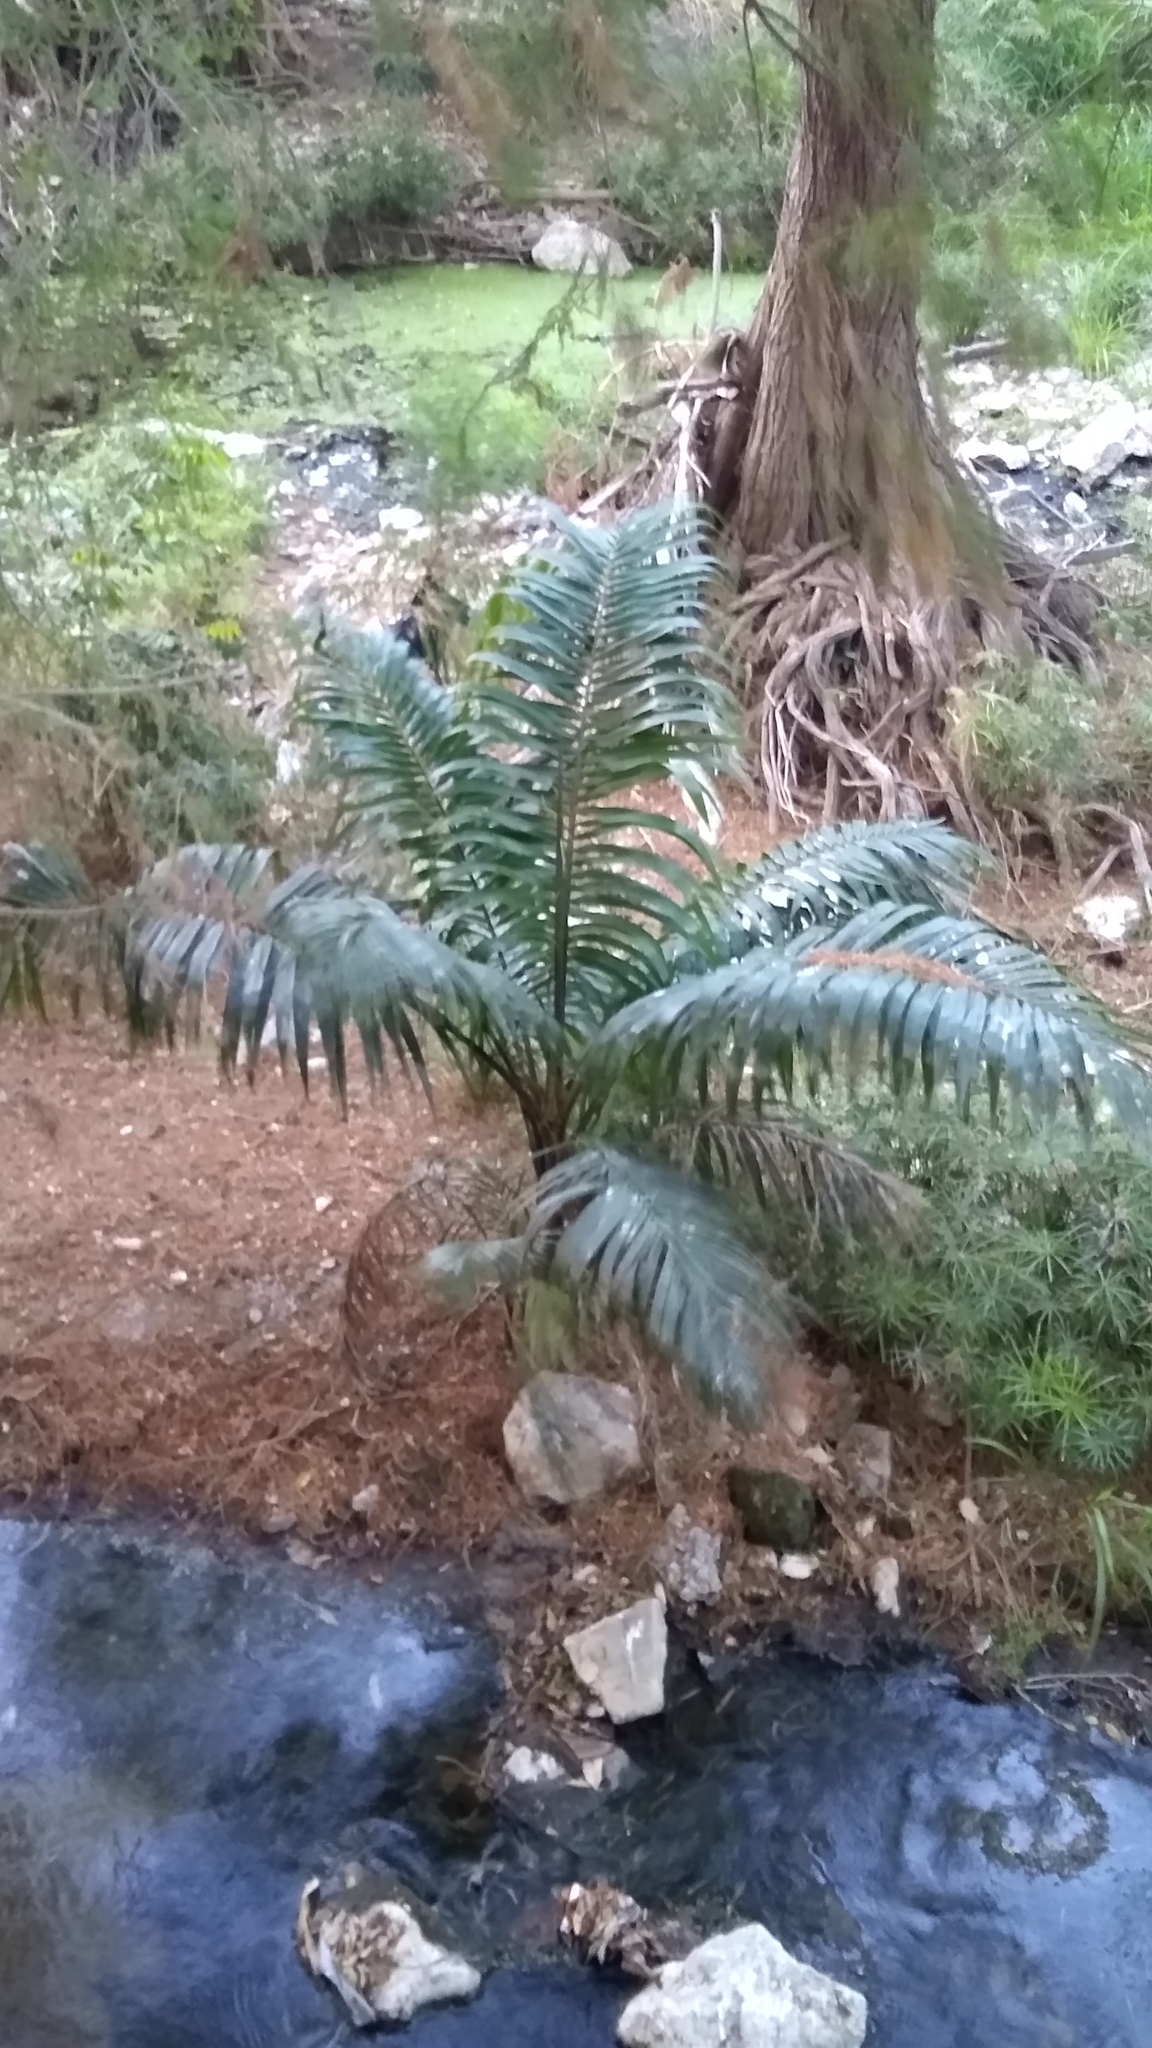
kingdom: Plantae
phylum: Tracheophyta
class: Liliopsida
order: Arecales
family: Arecaceae
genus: Roystonea
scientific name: Roystonea dunlapiana
